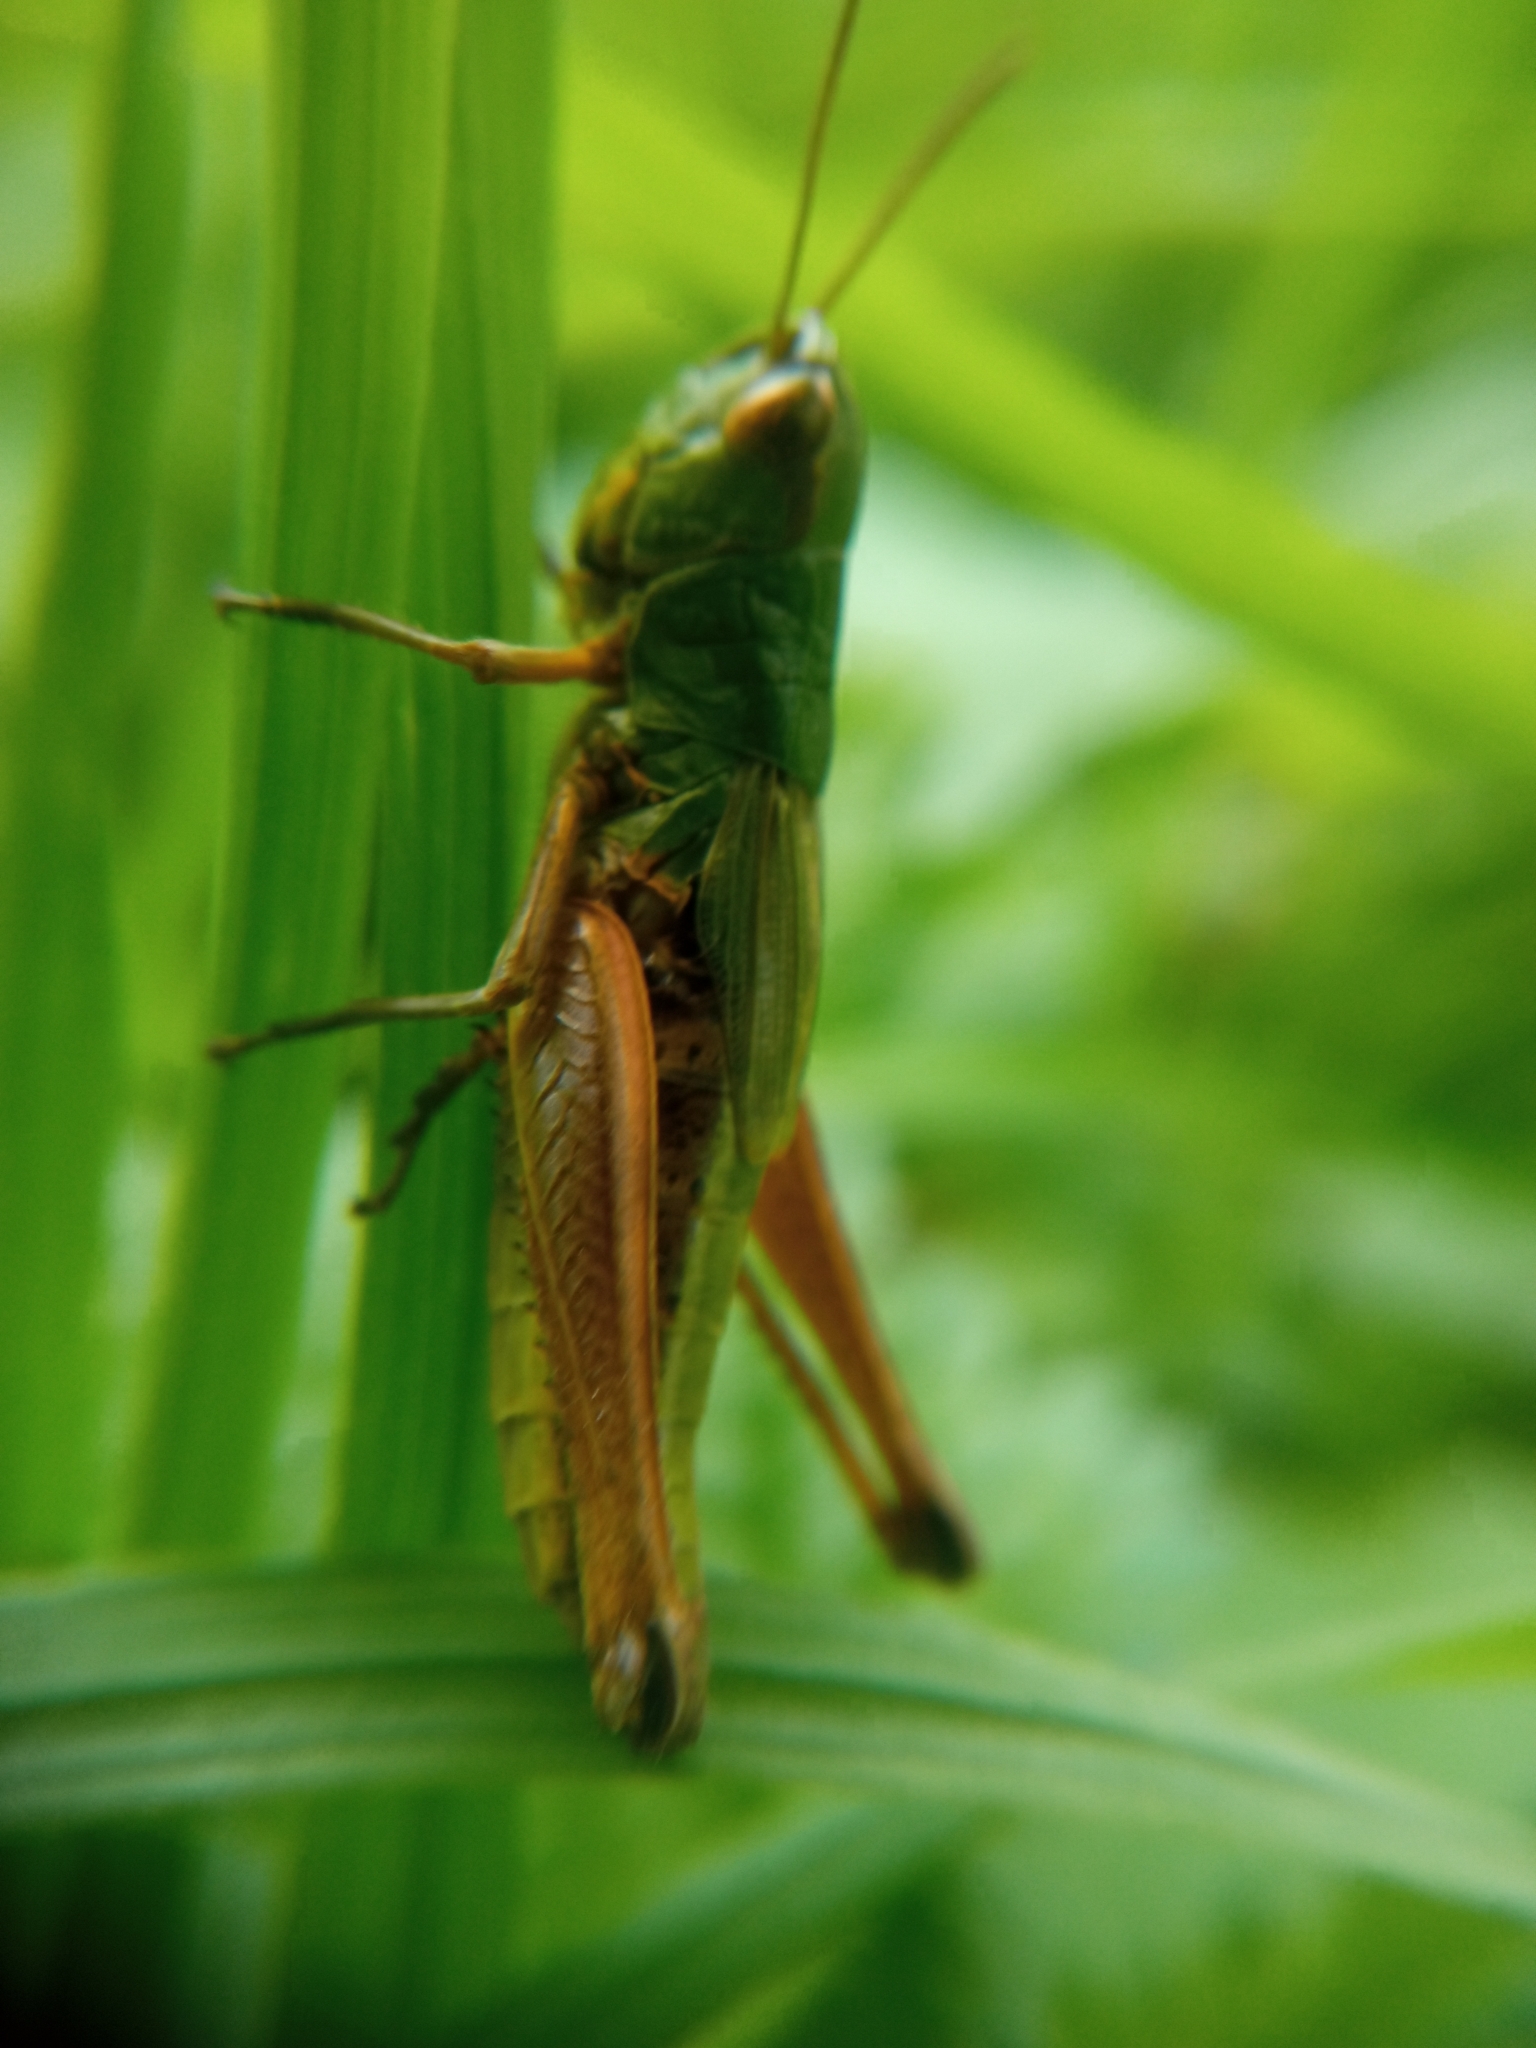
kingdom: Animalia
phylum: Arthropoda
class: Insecta
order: Orthoptera
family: Acrididae
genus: Pseudochorthippus
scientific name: Pseudochorthippus parallelus
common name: Meadow grasshopper
